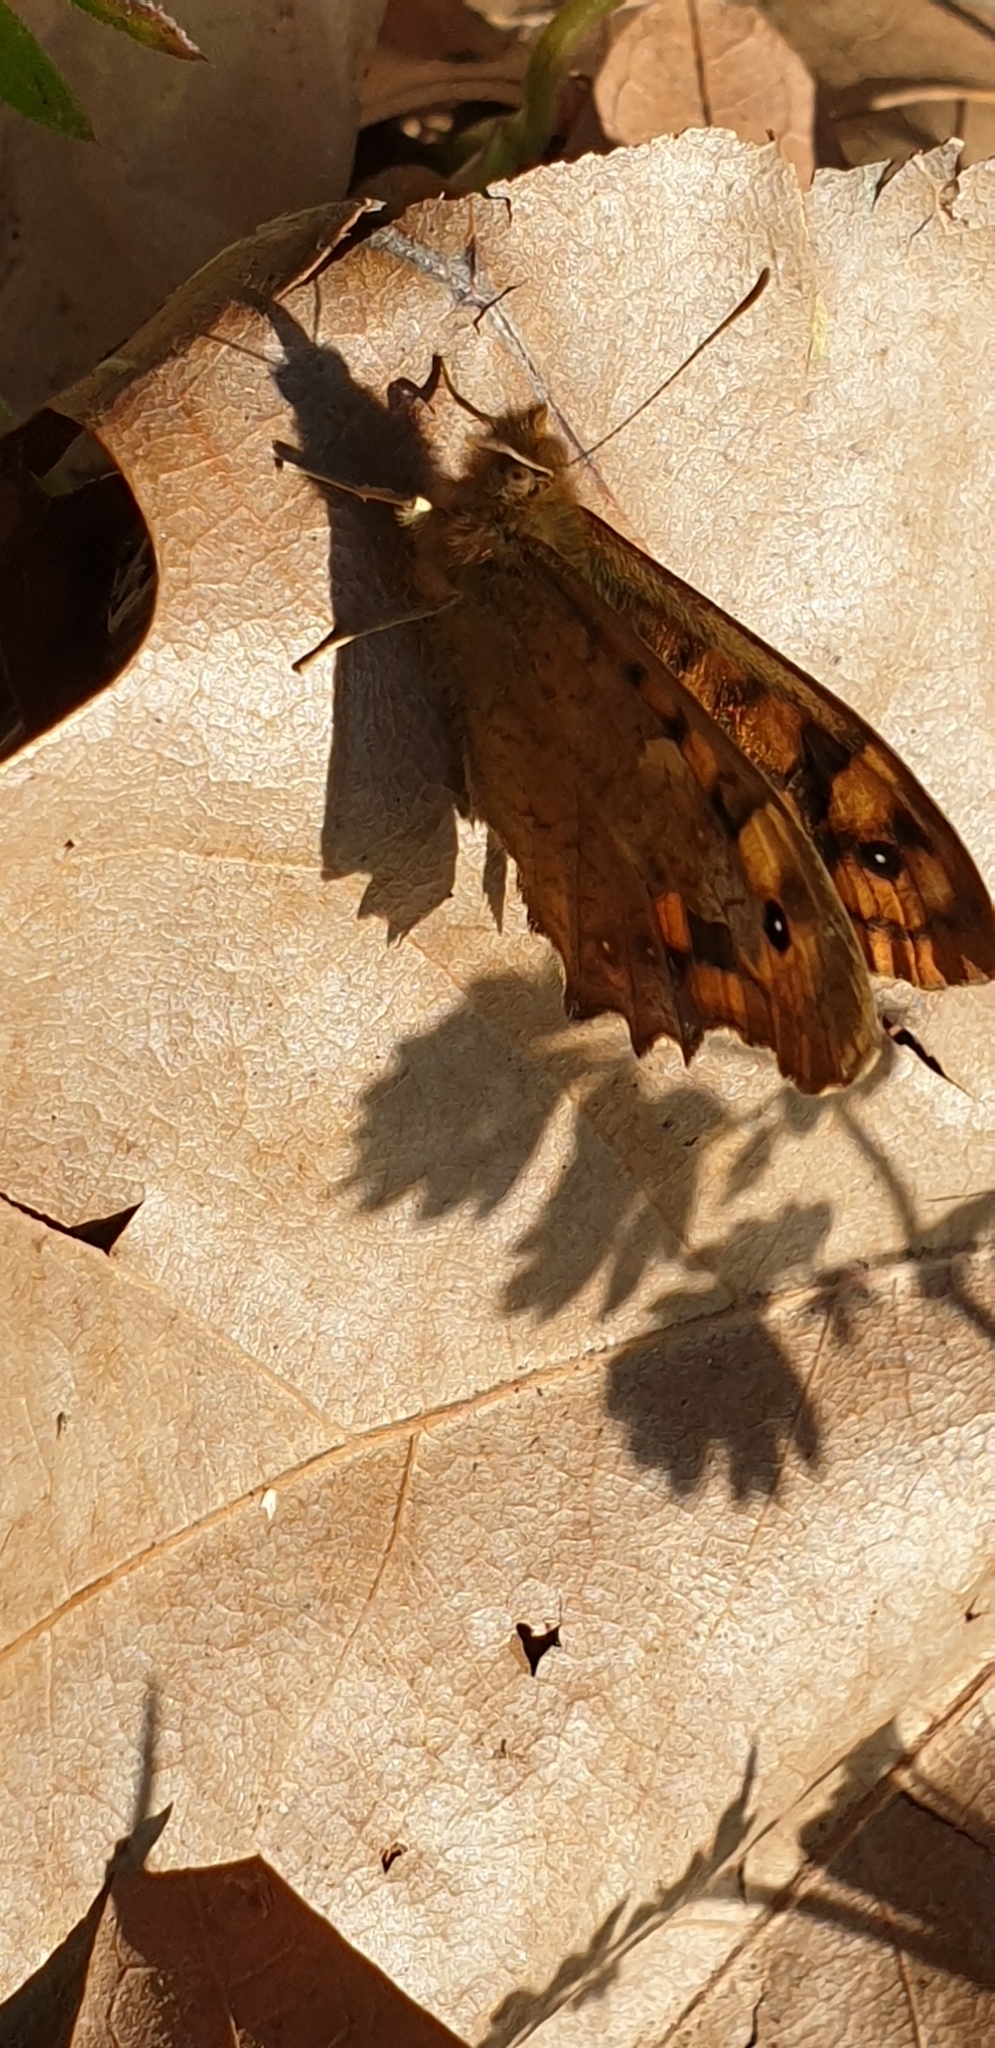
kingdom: Animalia
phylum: Arthropoda
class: Insecta
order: Lepidoptera
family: Nymphalidae
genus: Pararge
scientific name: Pararge aegeria
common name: Speckled wood
